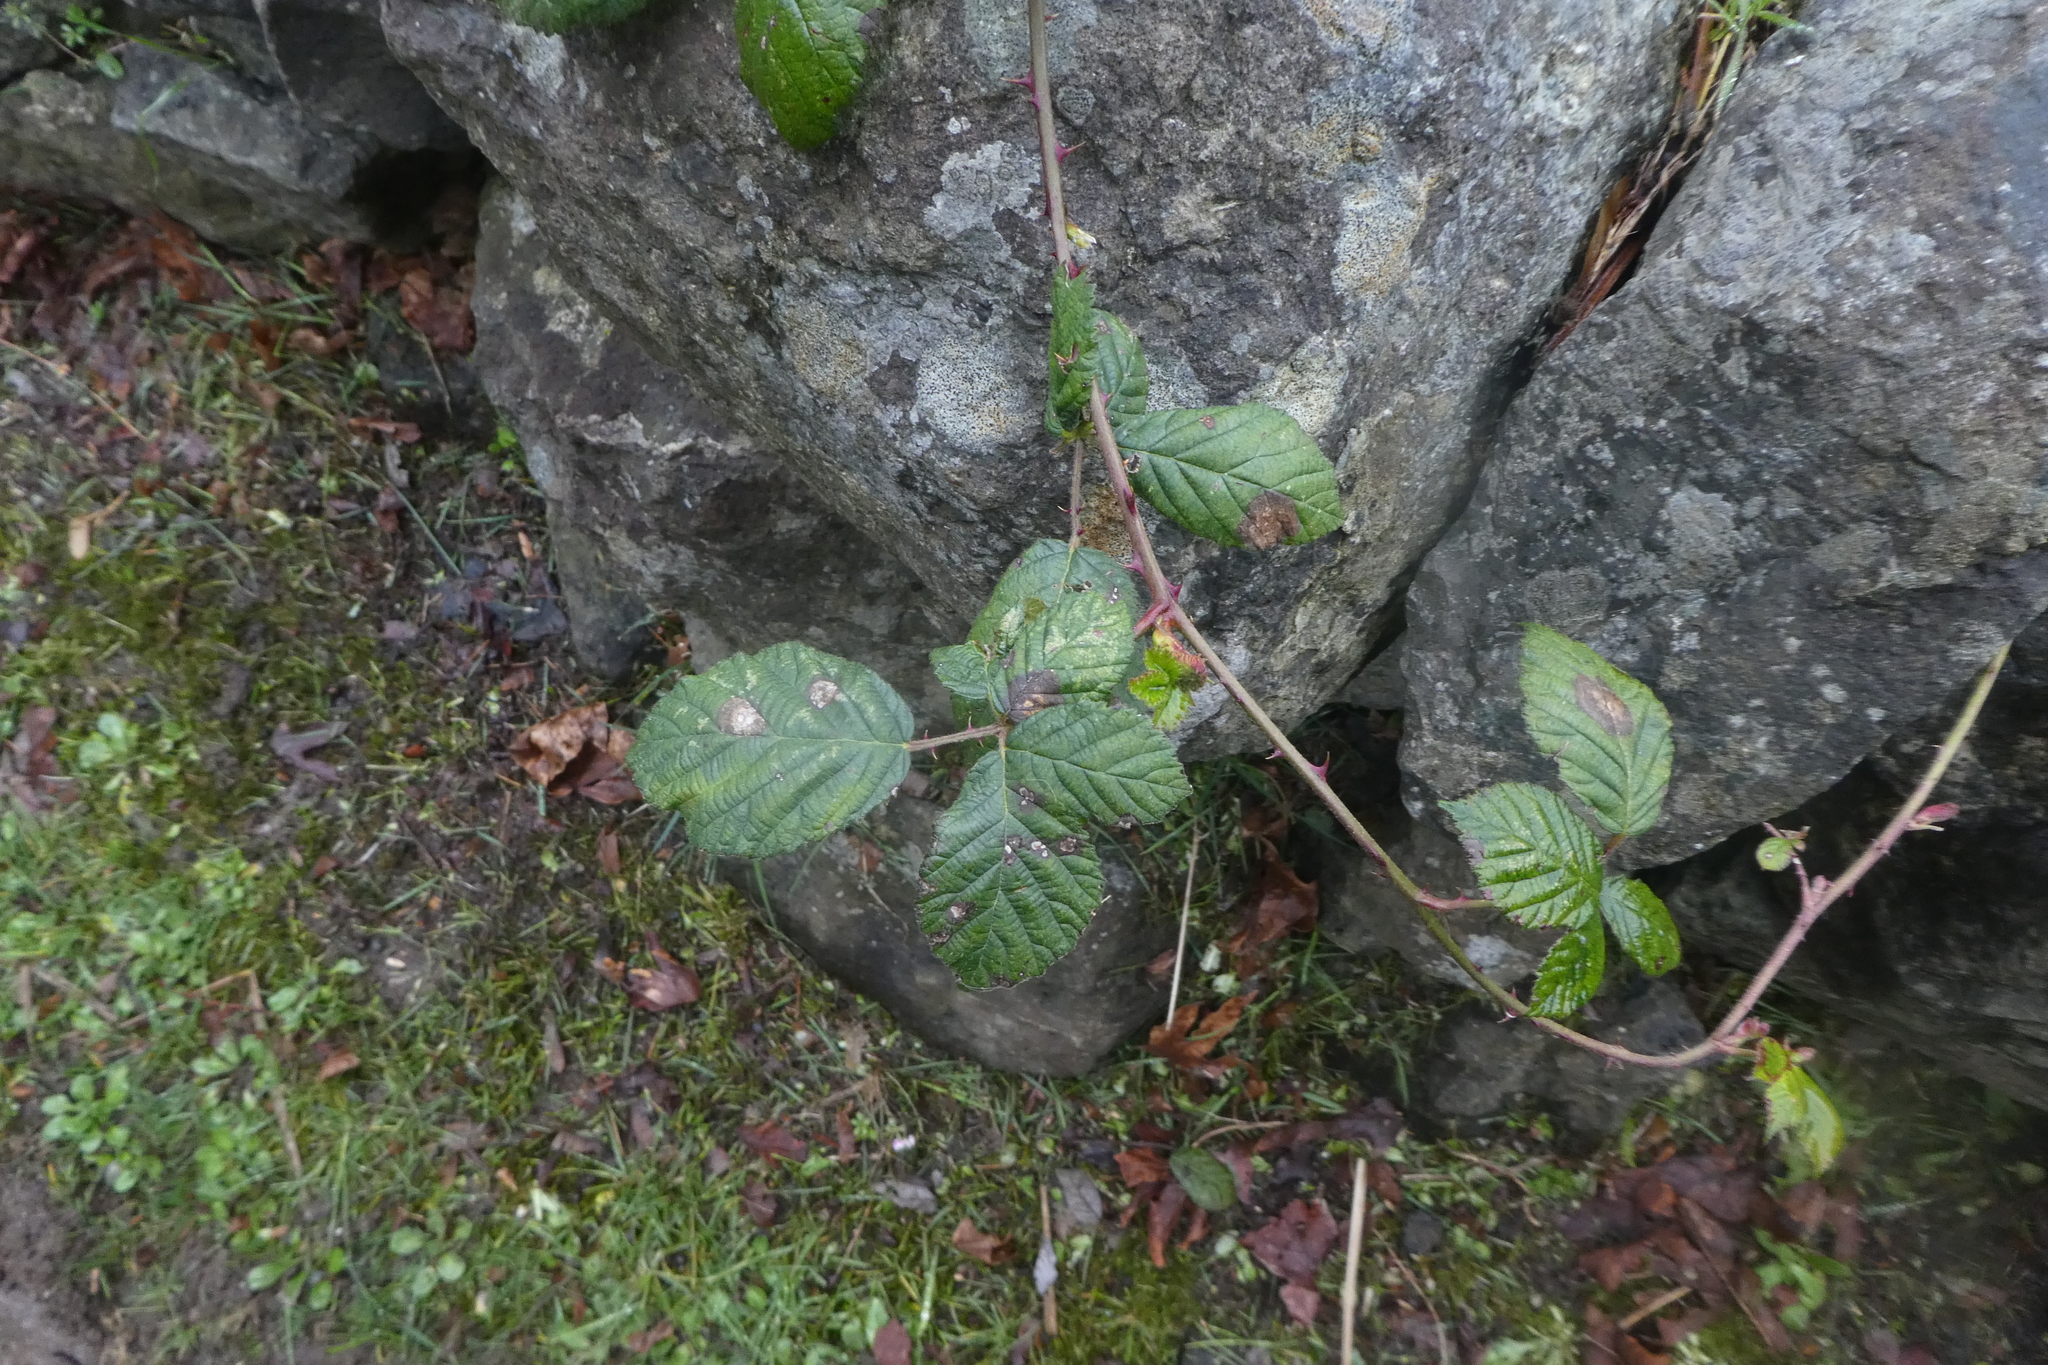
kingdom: Plantae
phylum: Tracheophyta
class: Magnoliopsida
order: Rosales
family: Rosaceae
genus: Rubus
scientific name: Rubus bifrons
